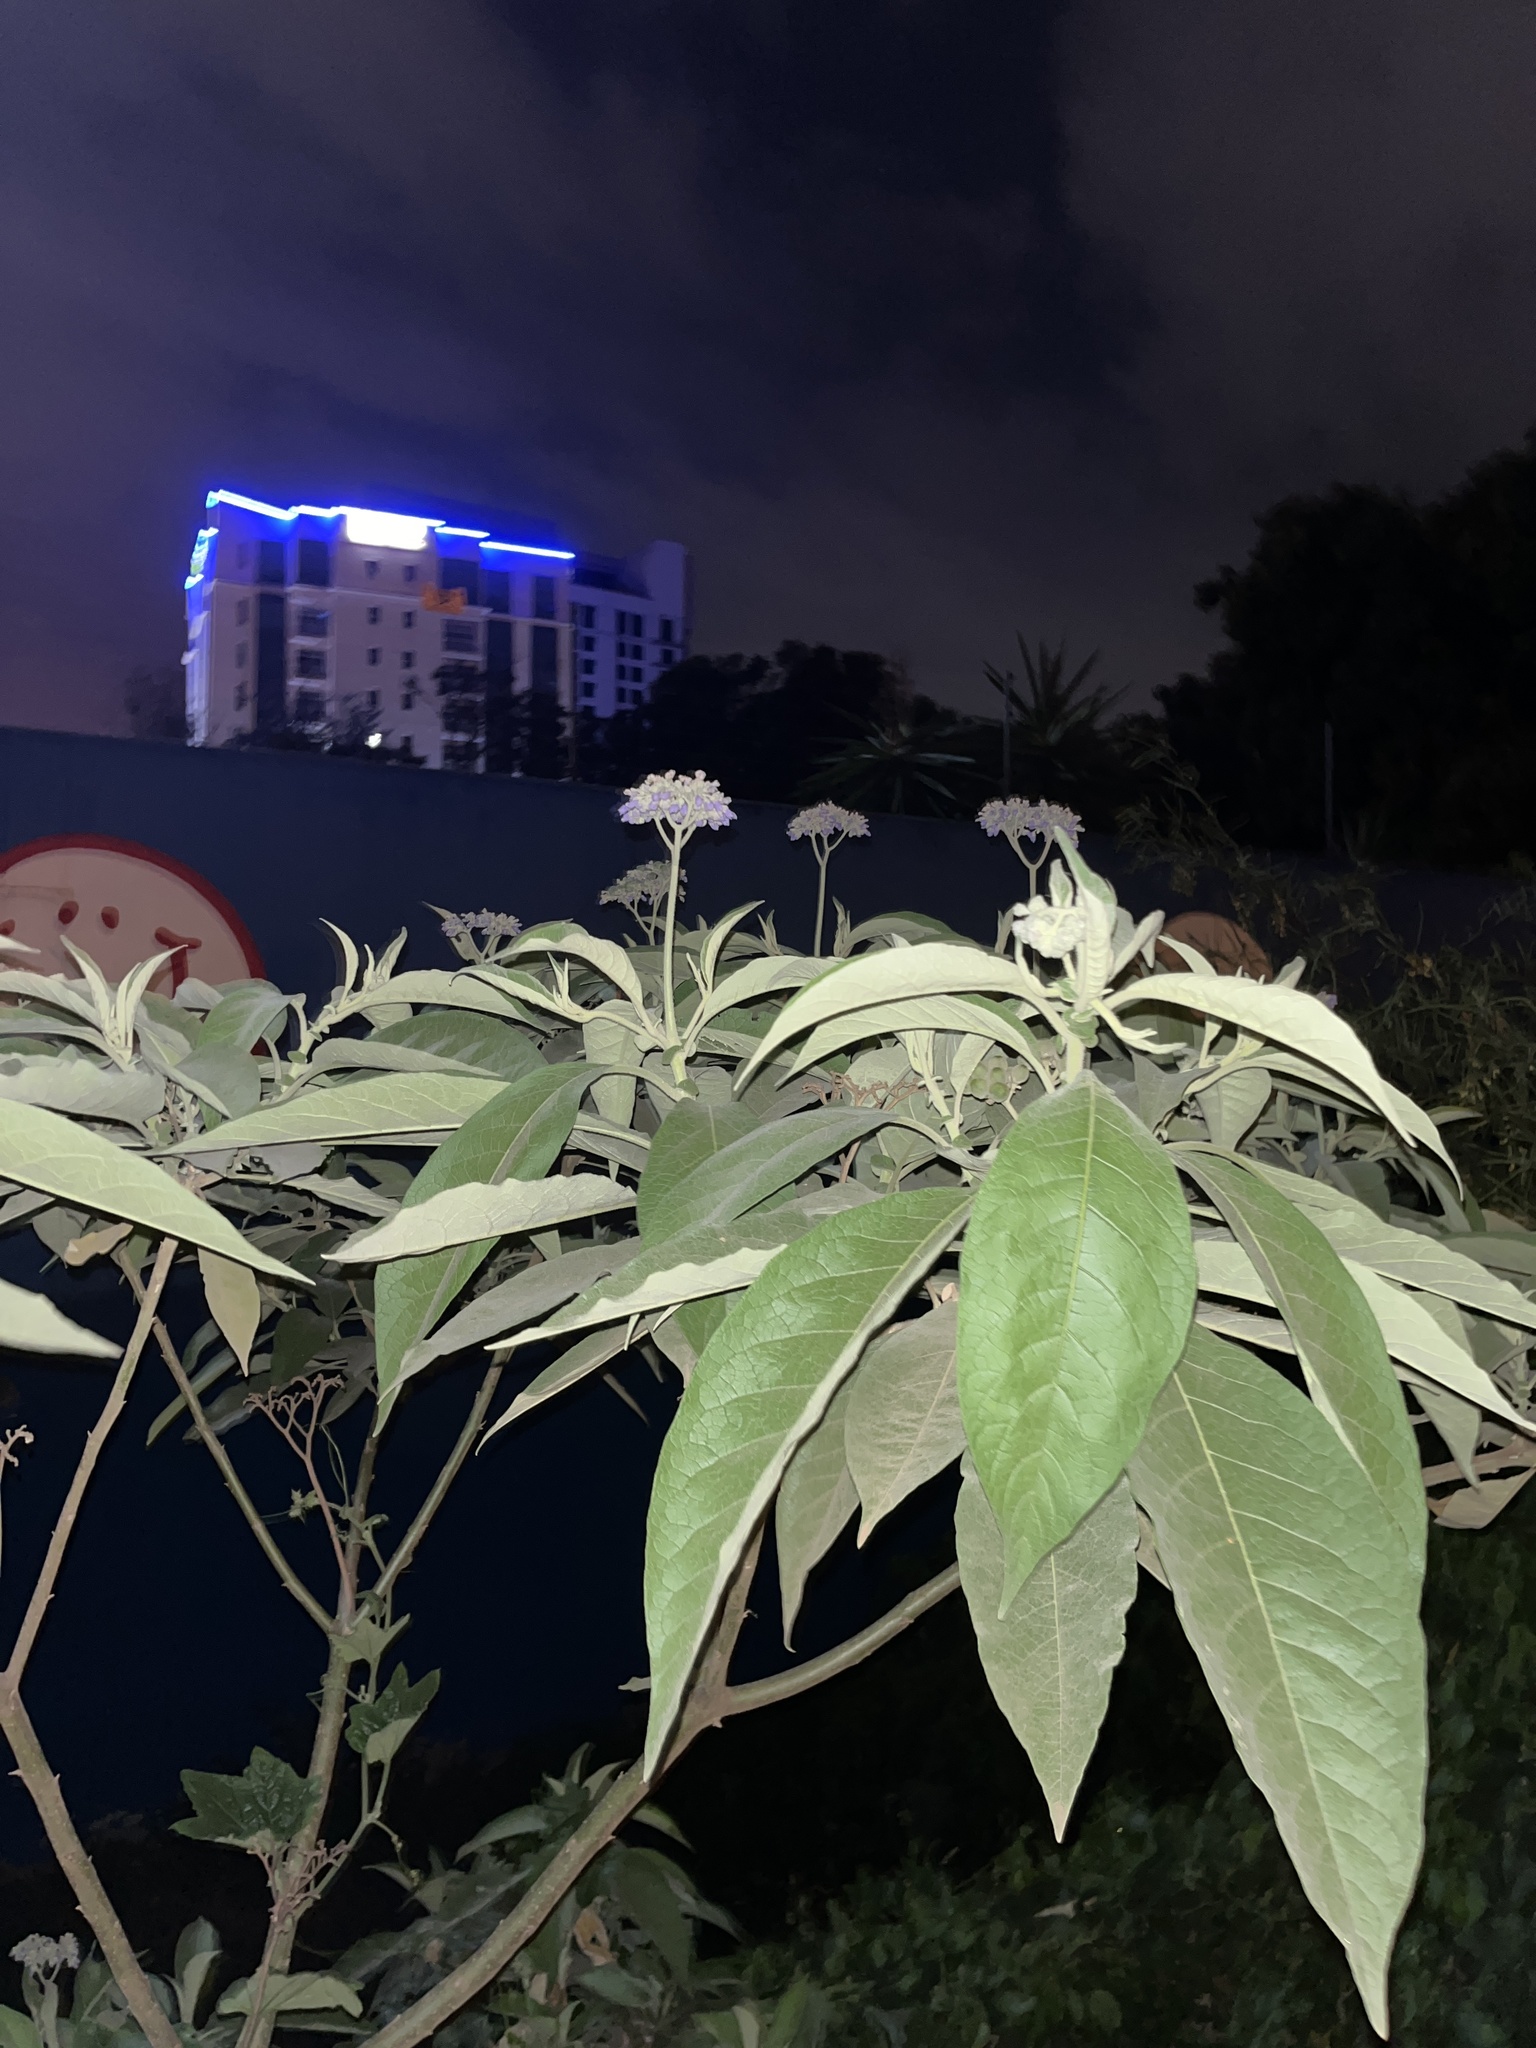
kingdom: Plantae
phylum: Tracheophyta
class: Magnoliopsida
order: Solanales
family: Solanaceae
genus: Solanum
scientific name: Solanum mauritianum
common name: Earleaf nightshade
